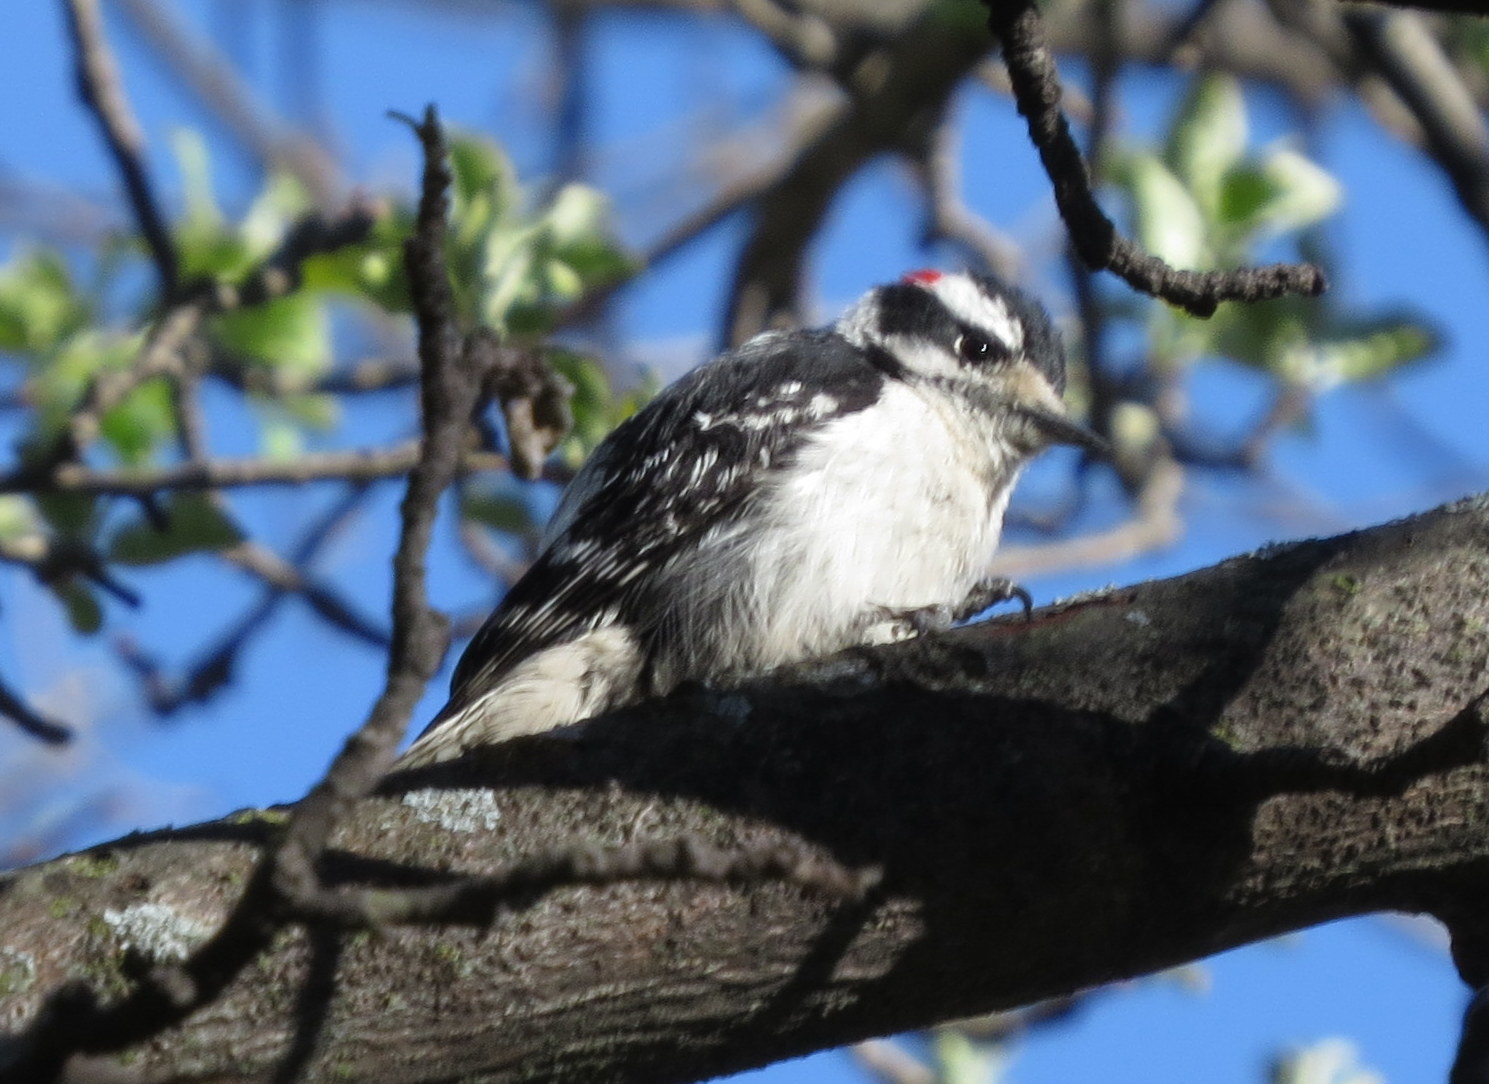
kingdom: Animalia
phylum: Chordata
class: Aves
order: Piciformes
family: Picidae
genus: Dryobates
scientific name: Dryobates pubescens
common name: Downy woodpecker
